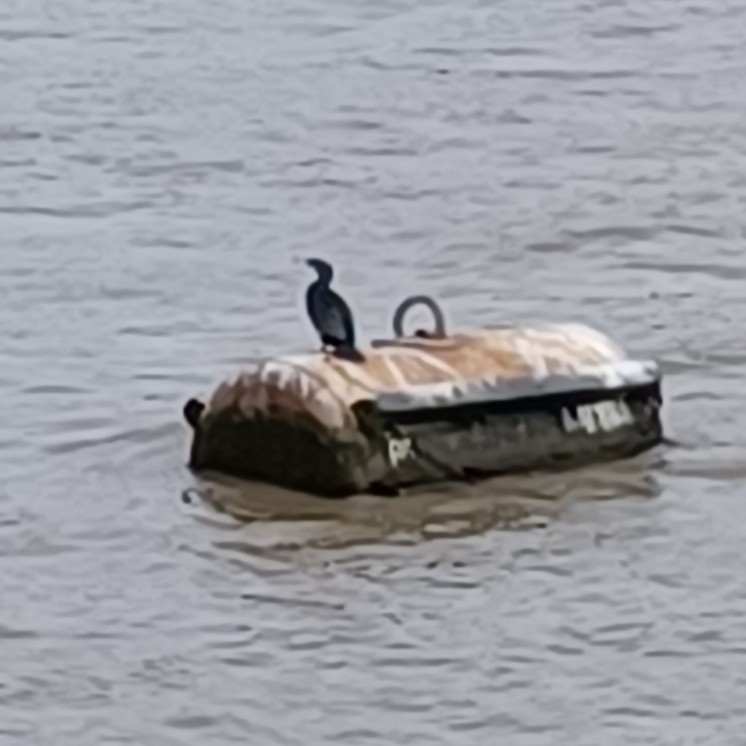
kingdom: Animalia
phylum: Chordata
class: Aves
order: Suliformes
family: Phalacrocoracidae
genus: Phalacrocorax
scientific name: Phalacrocorax carbo
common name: Great cormorant
